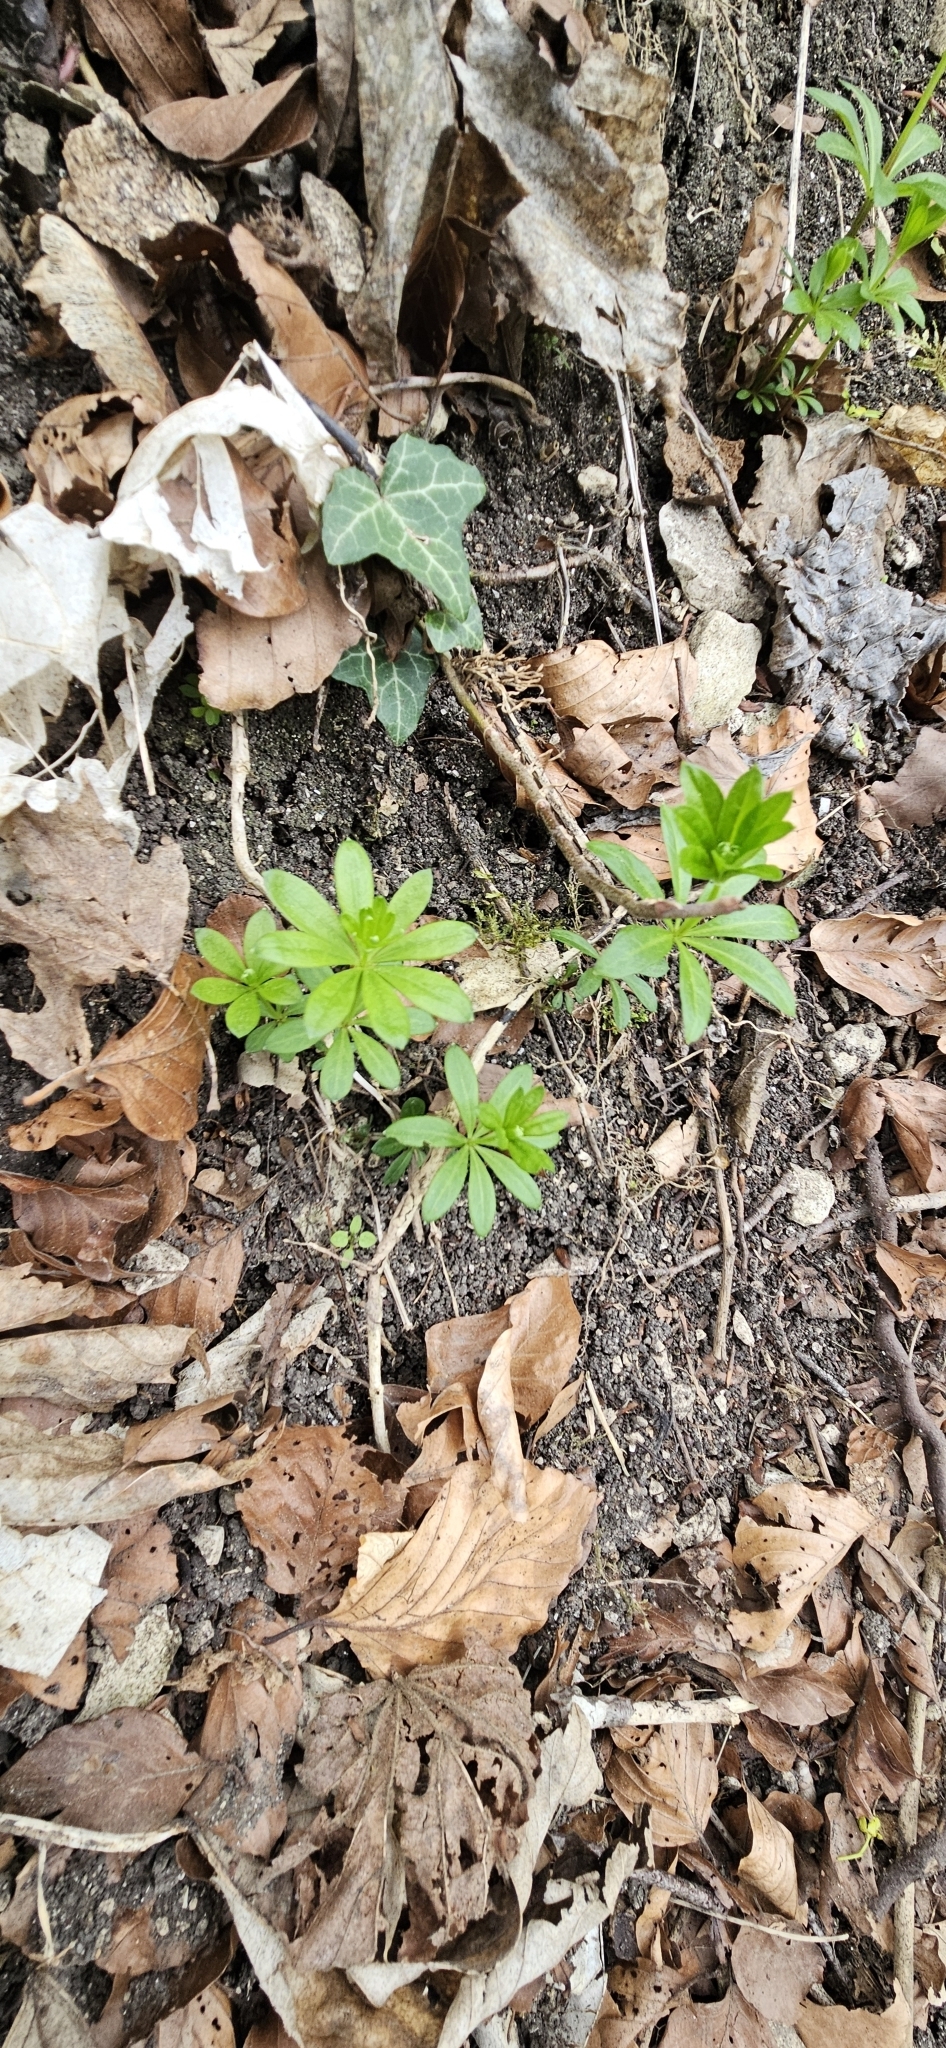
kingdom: Plantae
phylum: Tracheophyta
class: Magnoliopsida
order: Gentianales
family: Rubiaceae
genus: Galium
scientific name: Galium odoratum
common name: Sweet woodruff
